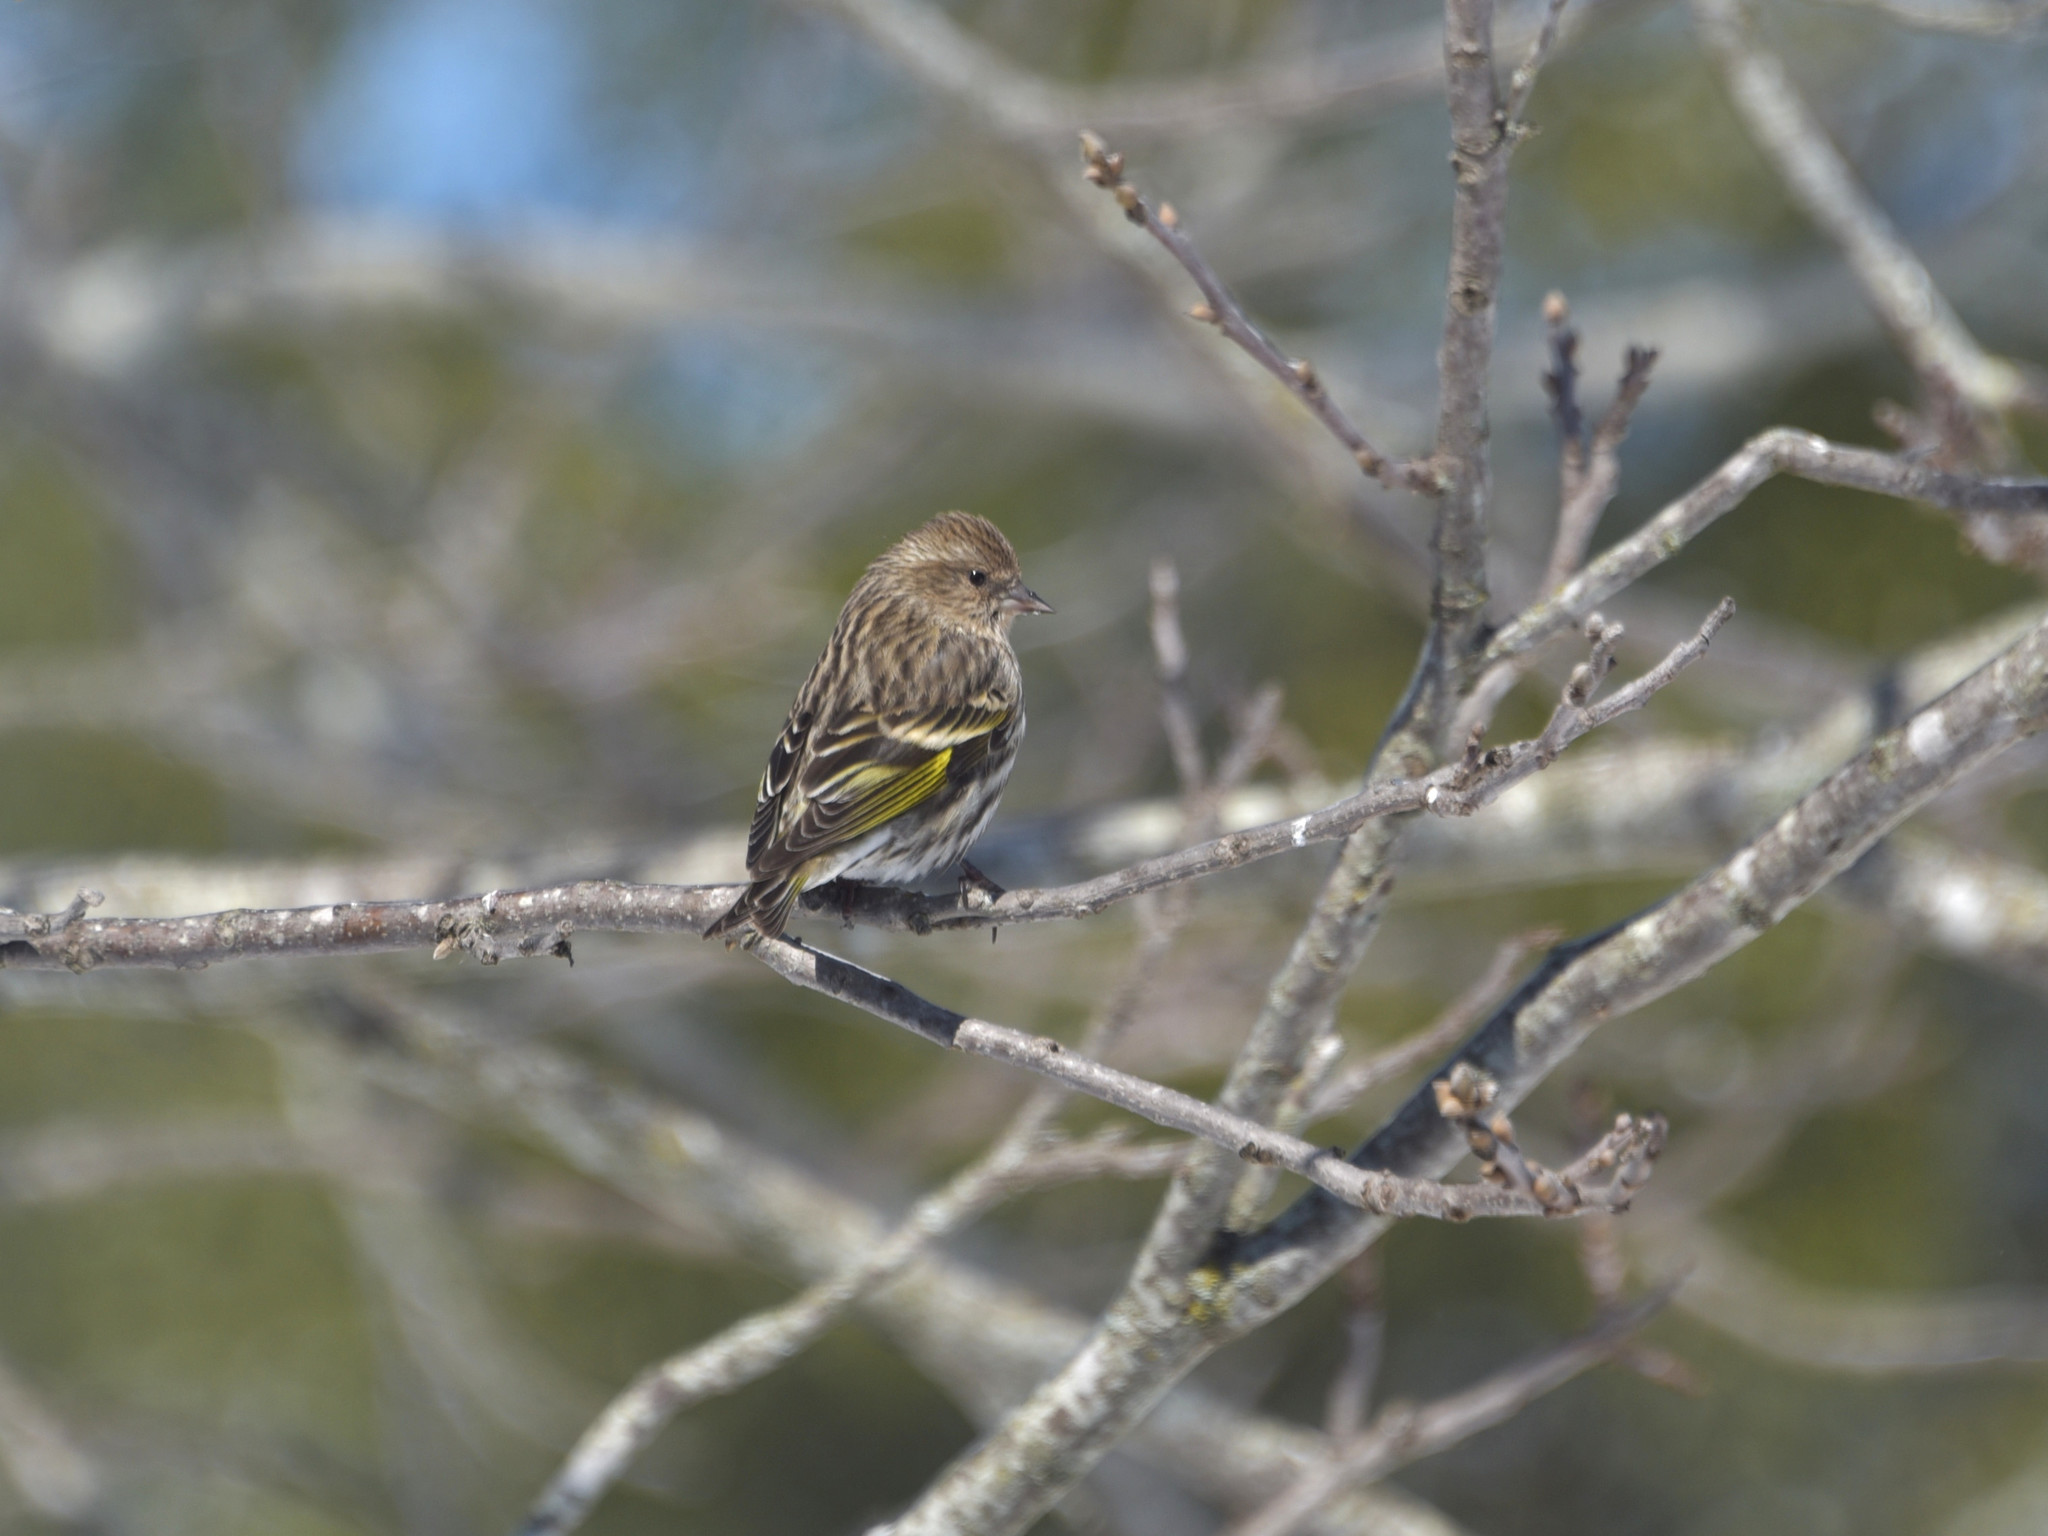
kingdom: Animalia
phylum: Chordata
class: Aves
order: Passeriformes
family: Fringillidae
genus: Spinus
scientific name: Spinus pinus
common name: Pine siskin
